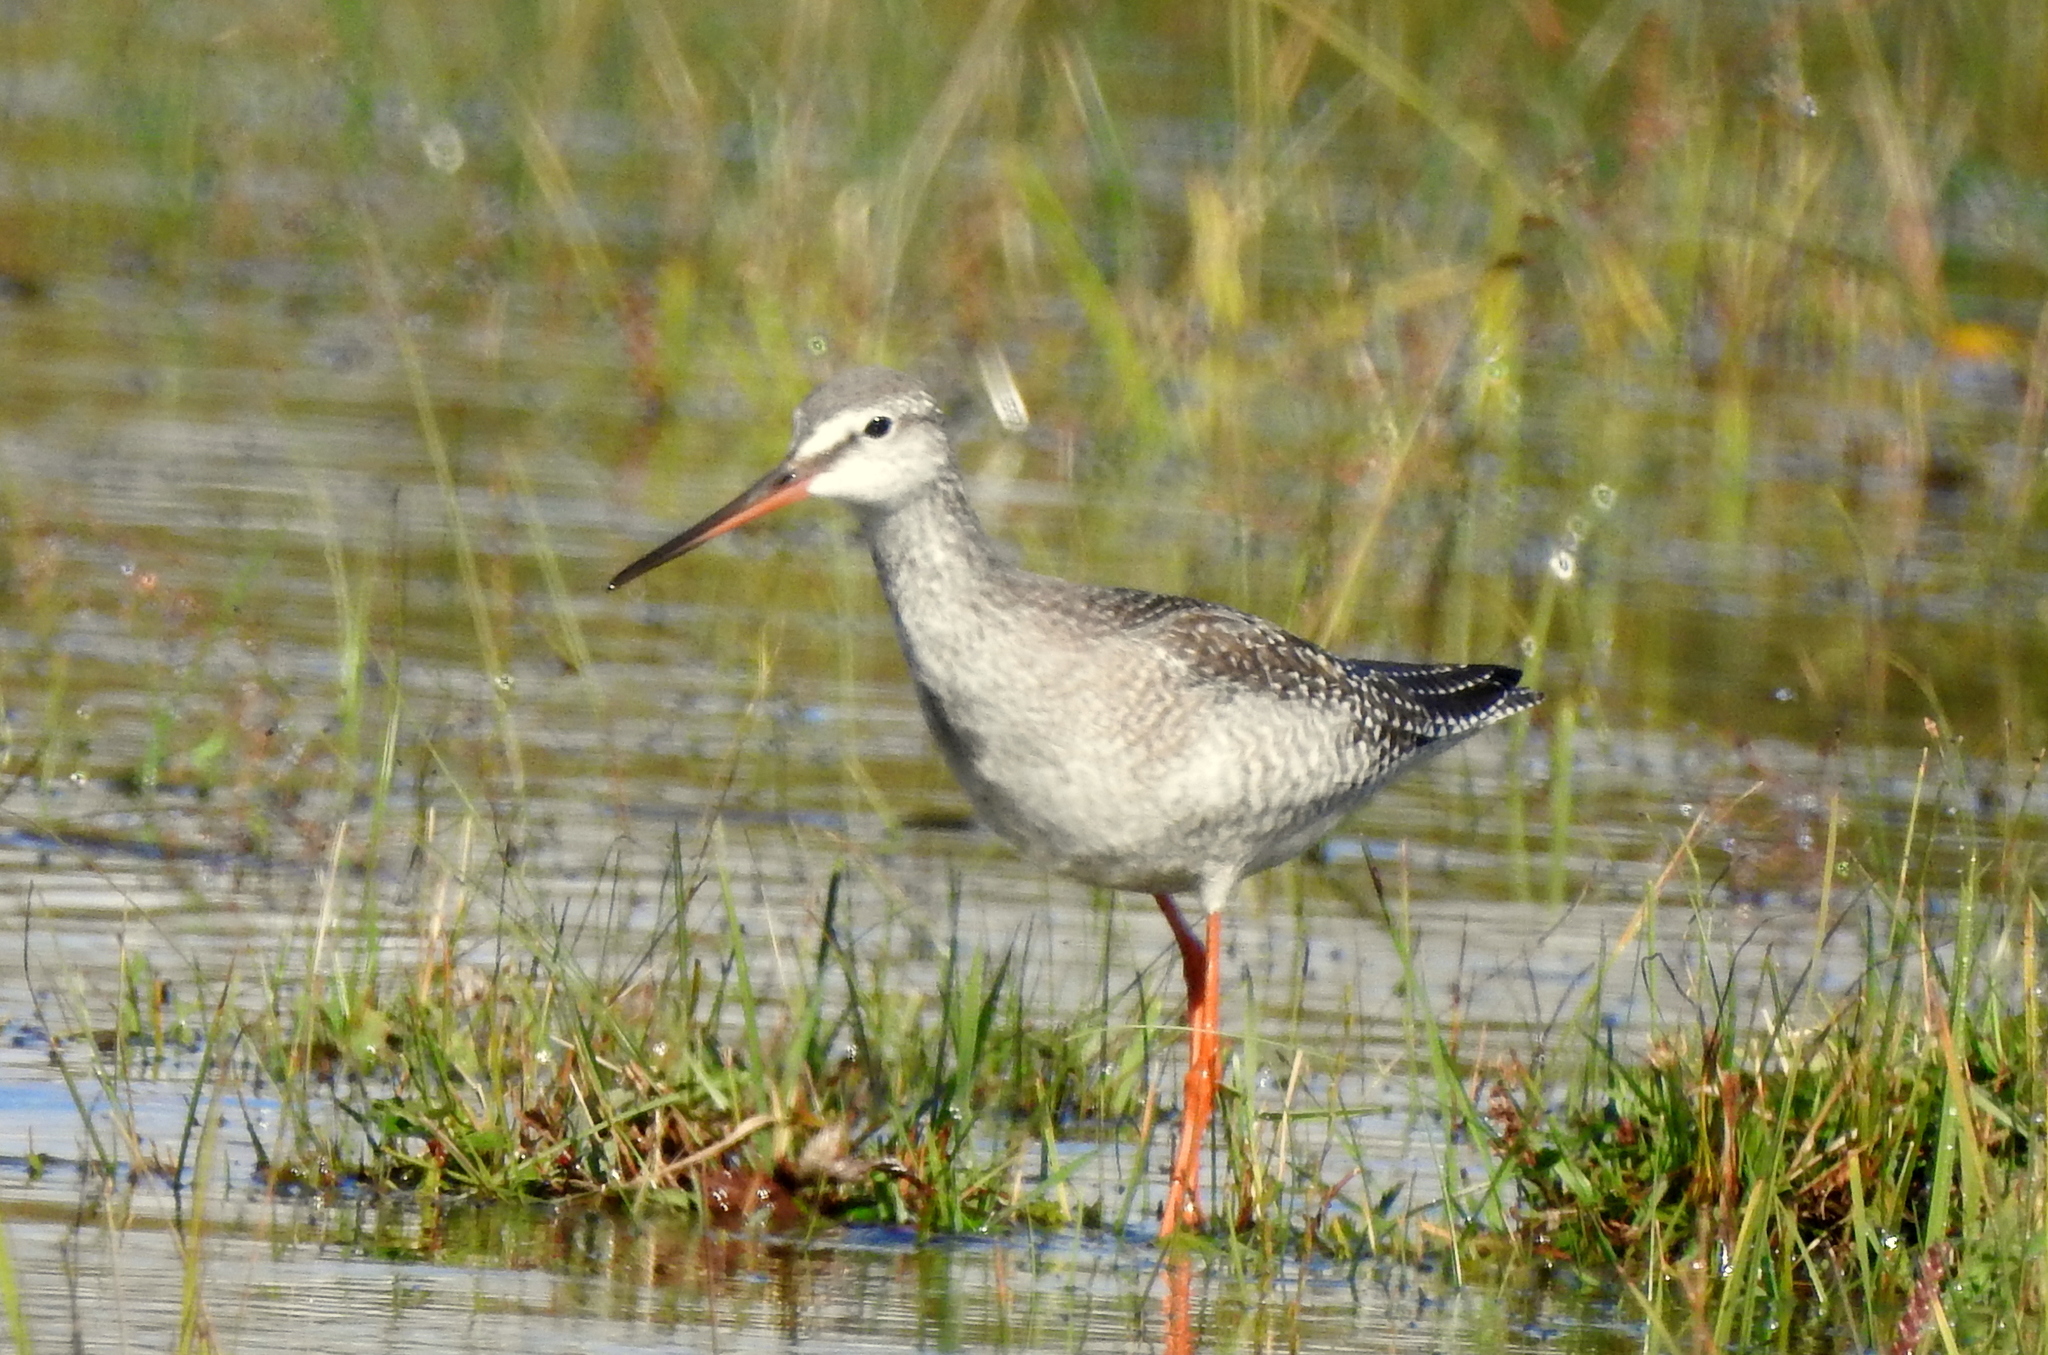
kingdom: Animalia
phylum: Chordata
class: Aves
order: Charadriiformes
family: Scolopacidae
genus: Tringa
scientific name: Tringa erythropus
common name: Spotted redshank
